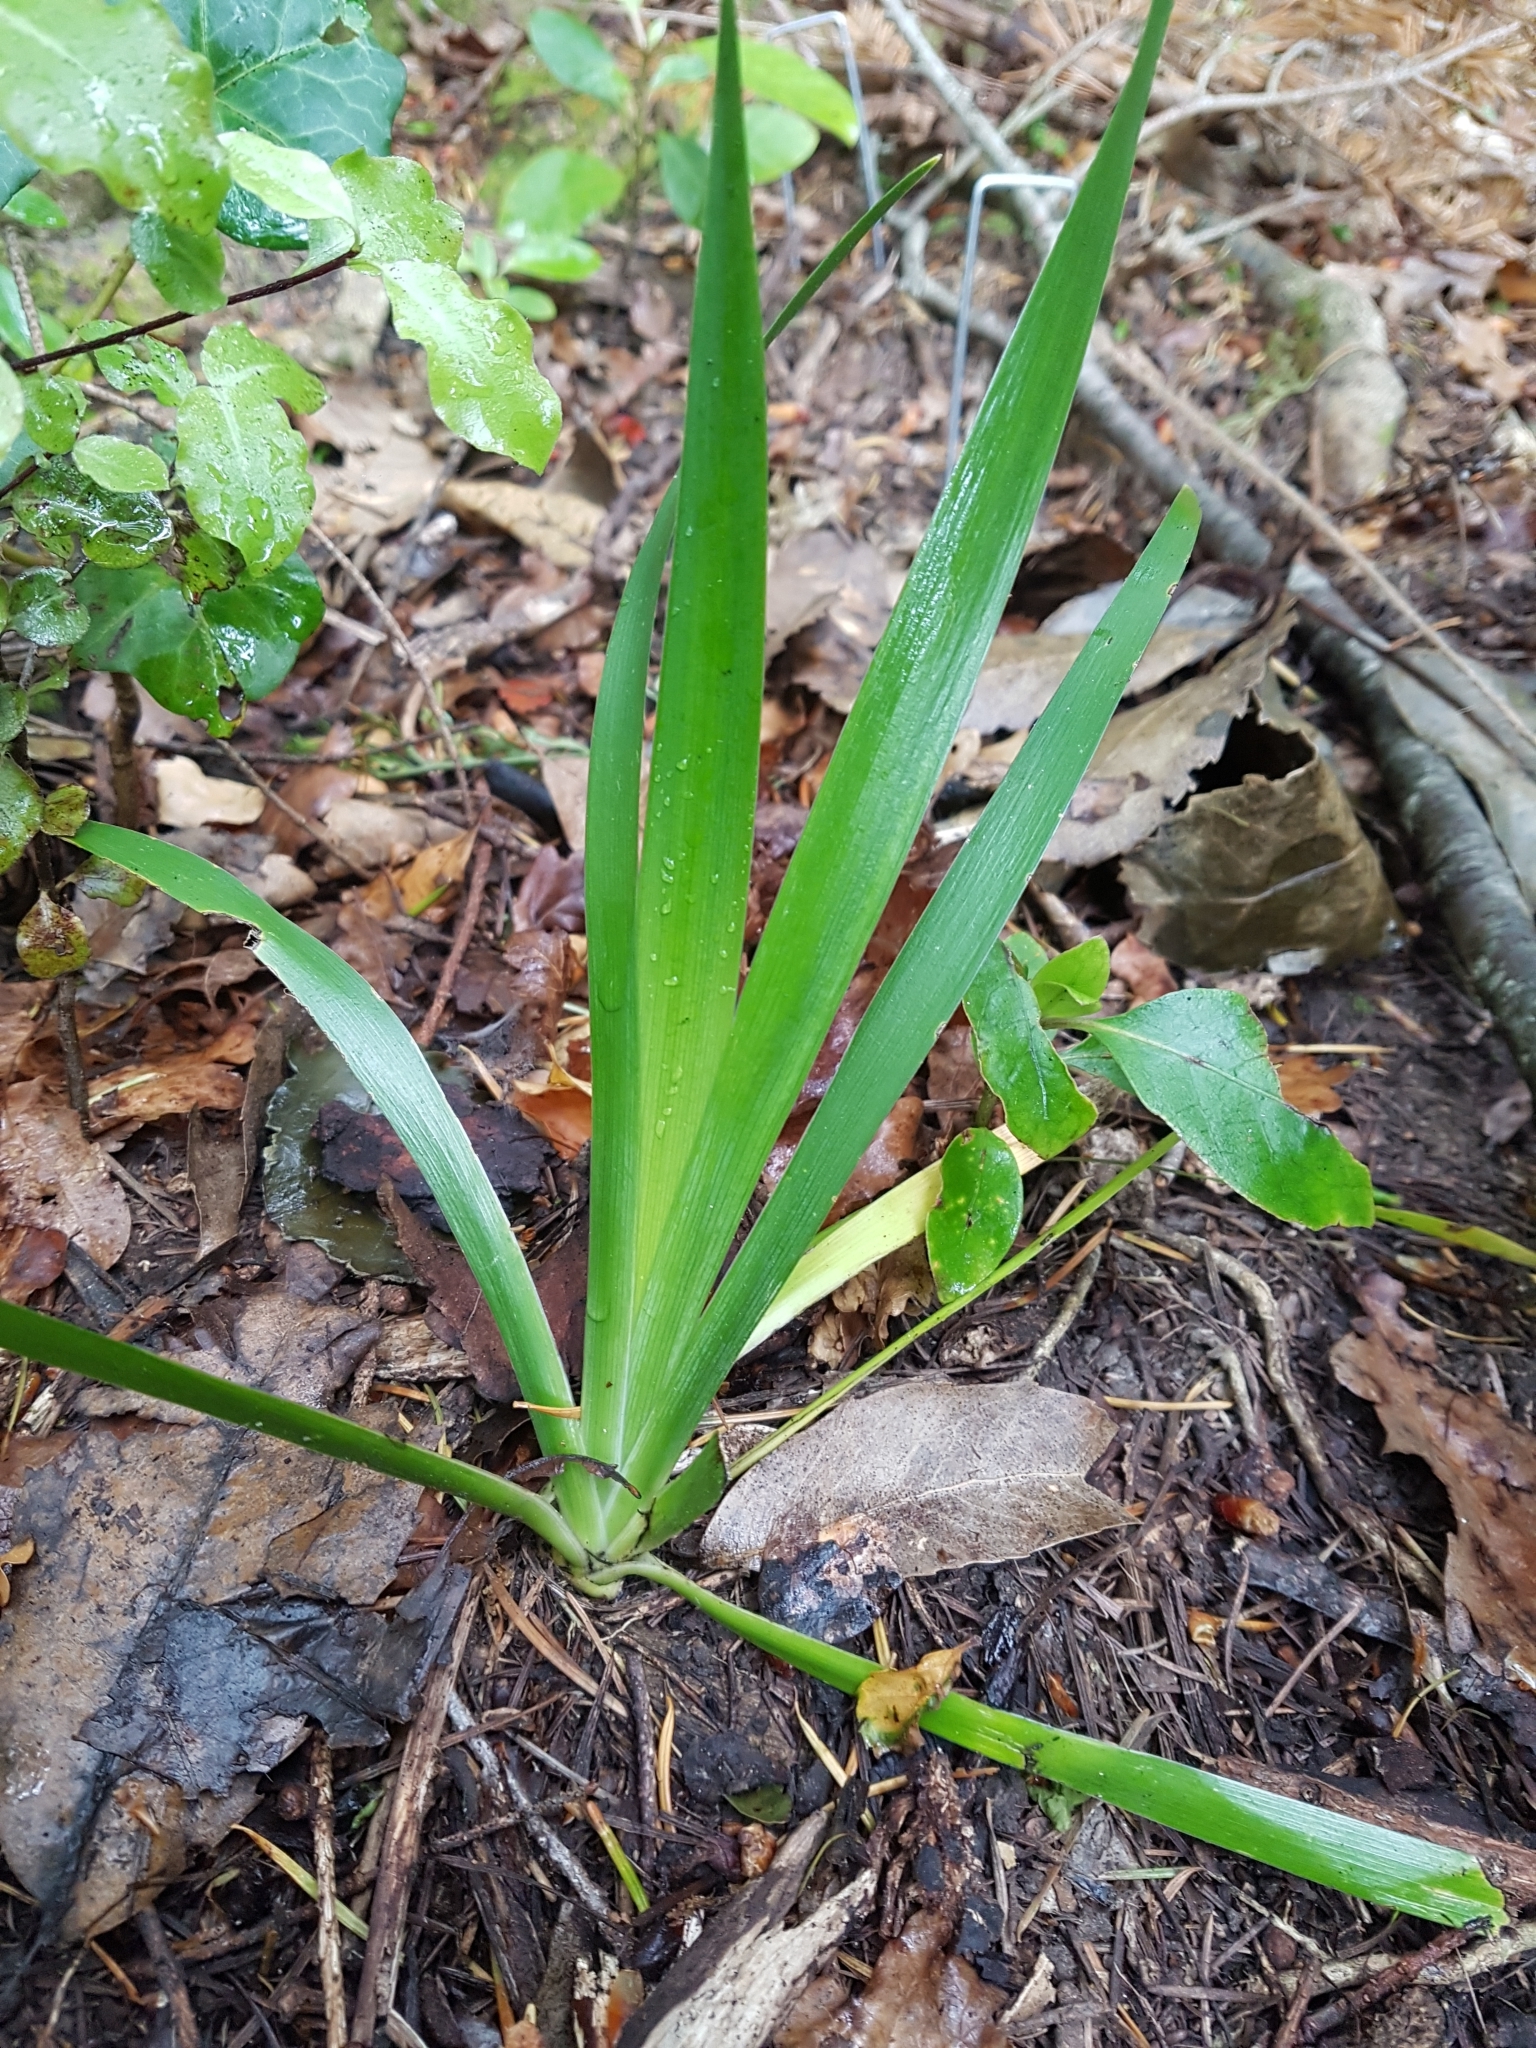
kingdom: Plantae
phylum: Tracheophyta
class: Liliopsida
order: Asparagales
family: Iridaceae
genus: Iris
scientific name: Iris foetidissima
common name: Stinking iris
